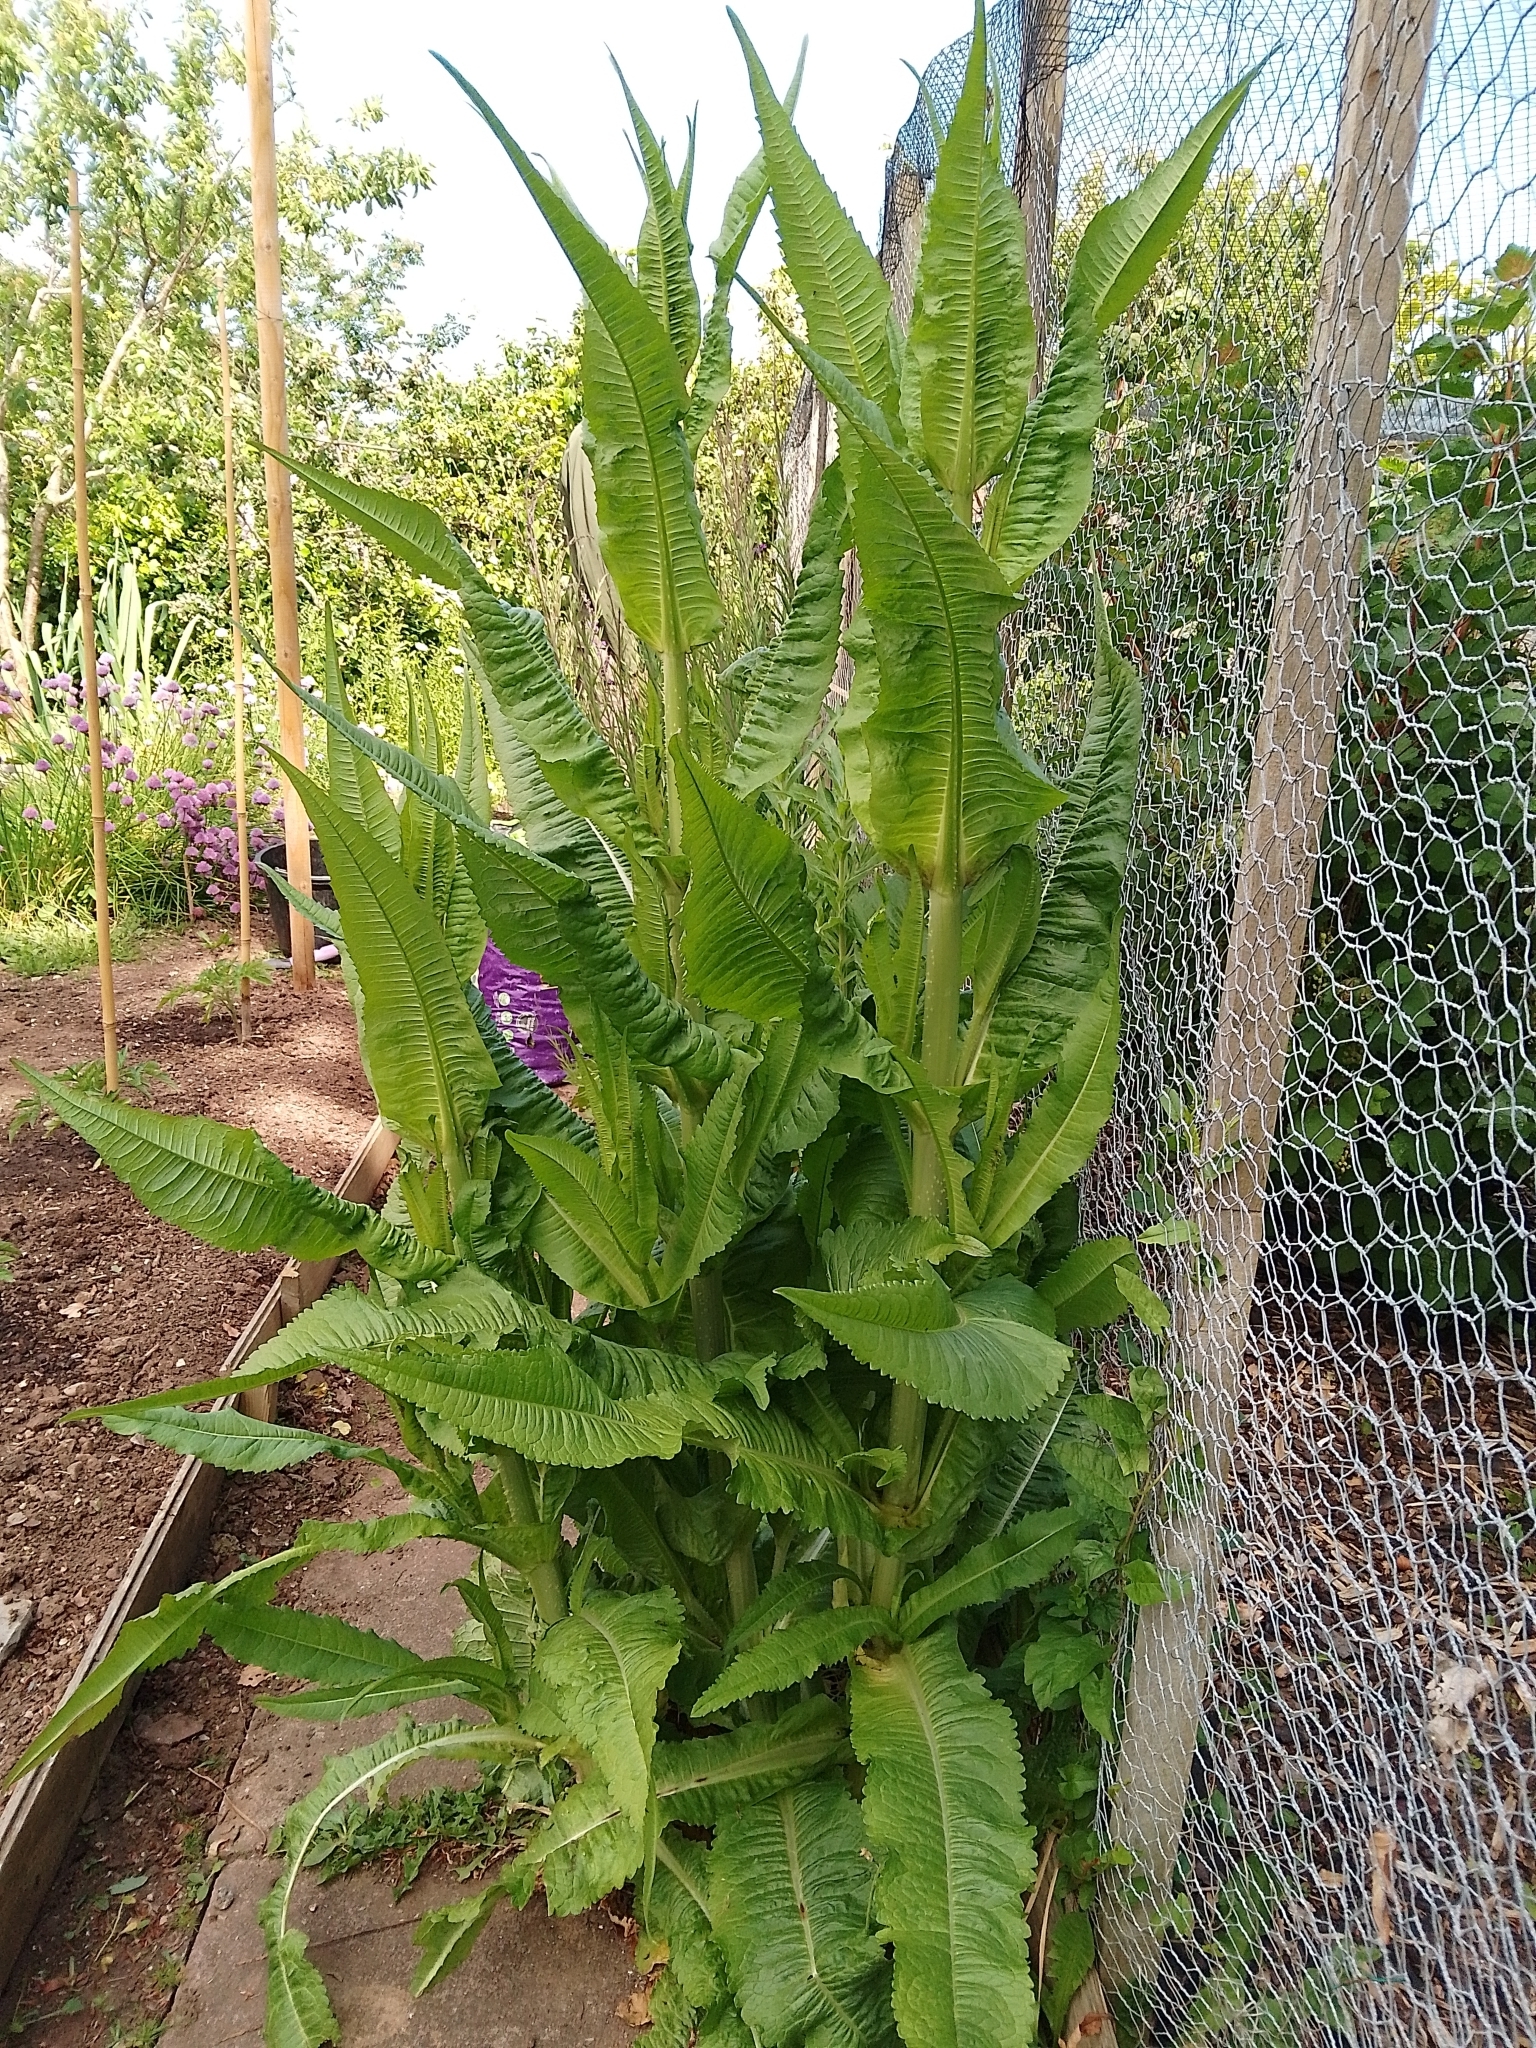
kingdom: Plantae
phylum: Tracheophyta
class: Magnoliopsida
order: Dipsacales
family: Caprifoliaceae
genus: Dipsacus
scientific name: Dipsacus fullonum
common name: Teasel
